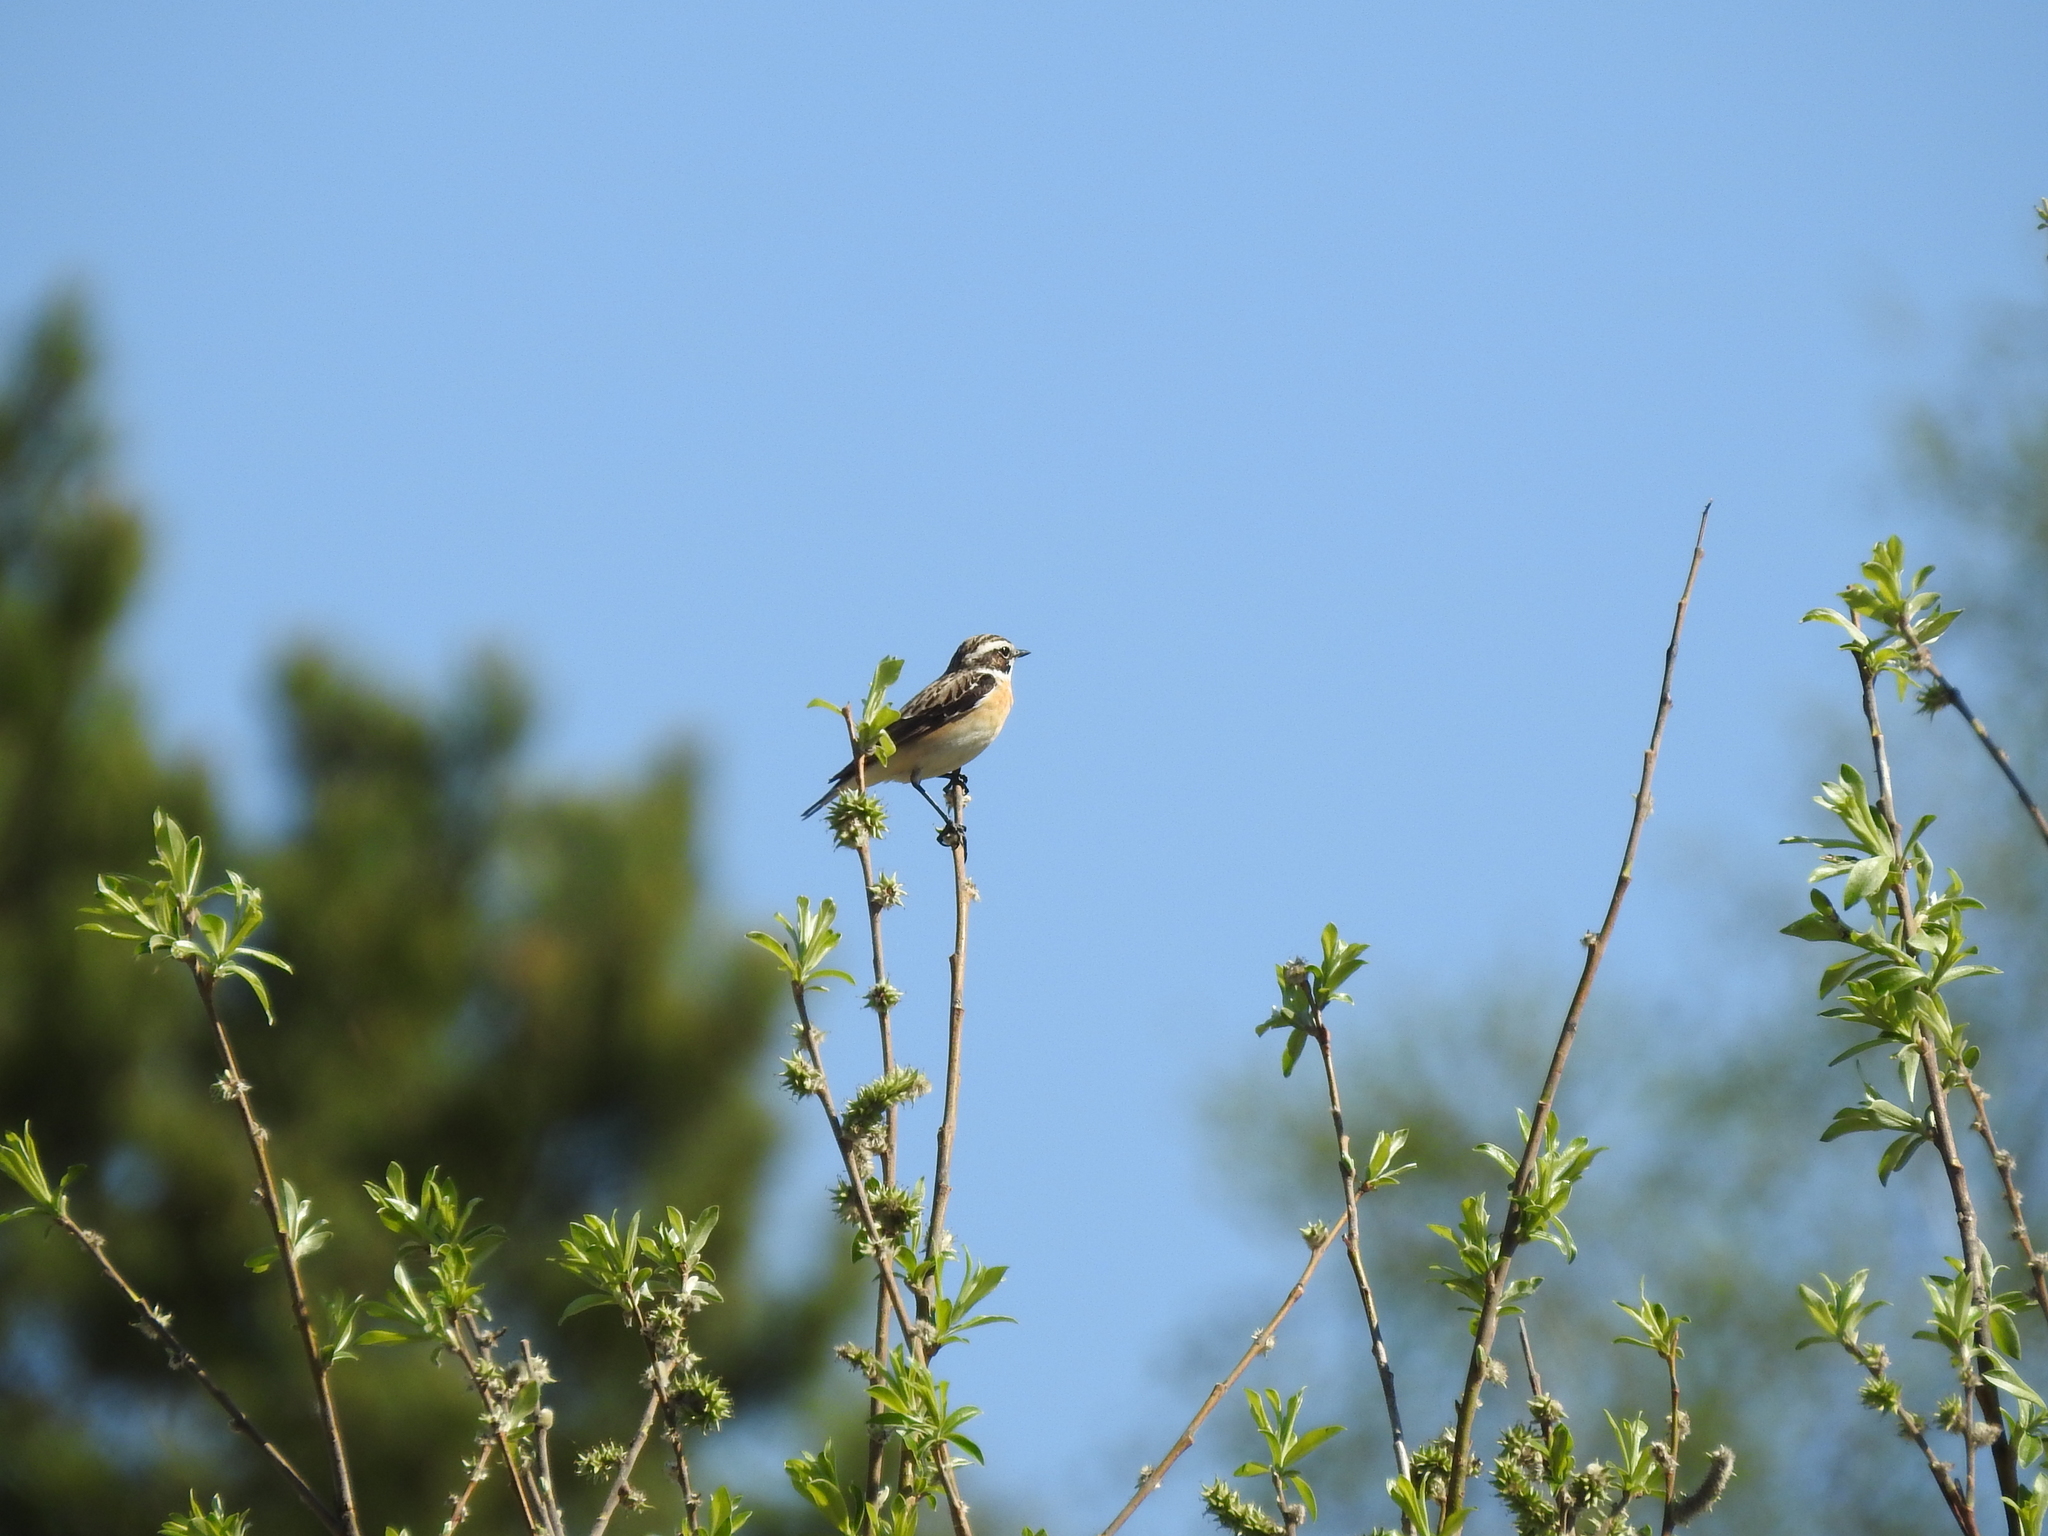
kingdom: Animalia
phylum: Chordata
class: Aves
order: Passeriformes
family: Muscicapidae
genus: Saxicola
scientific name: Saxicola rubetra
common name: Whinchat
